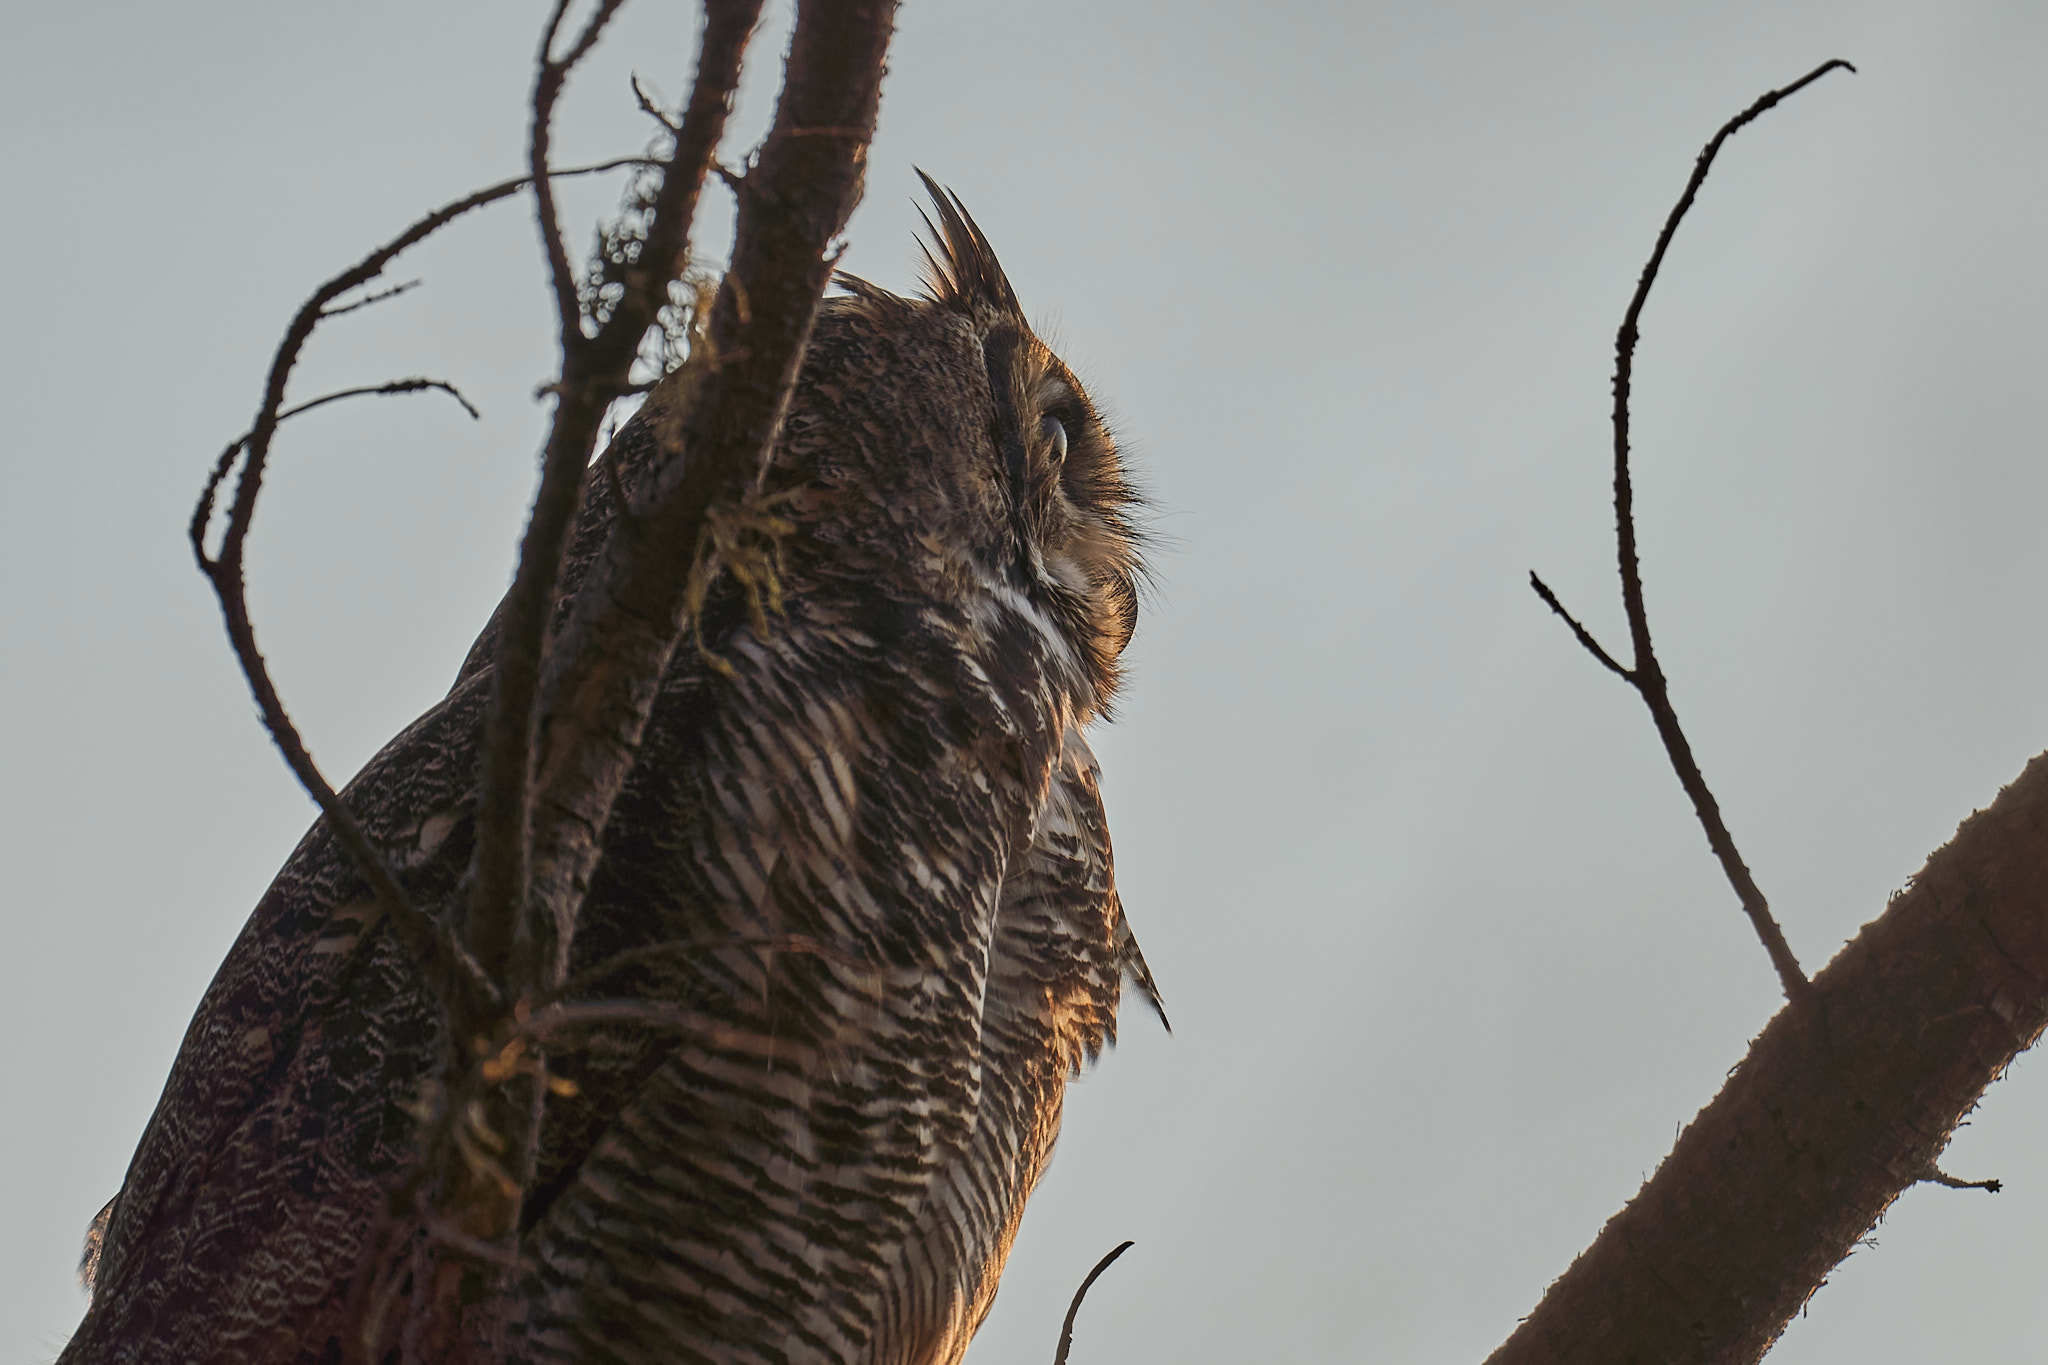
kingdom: Animalia
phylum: Chordata
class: Aves
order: Strigiformes
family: Strigidae
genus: Bubo
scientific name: Bubo virginianus
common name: Great horned owl
